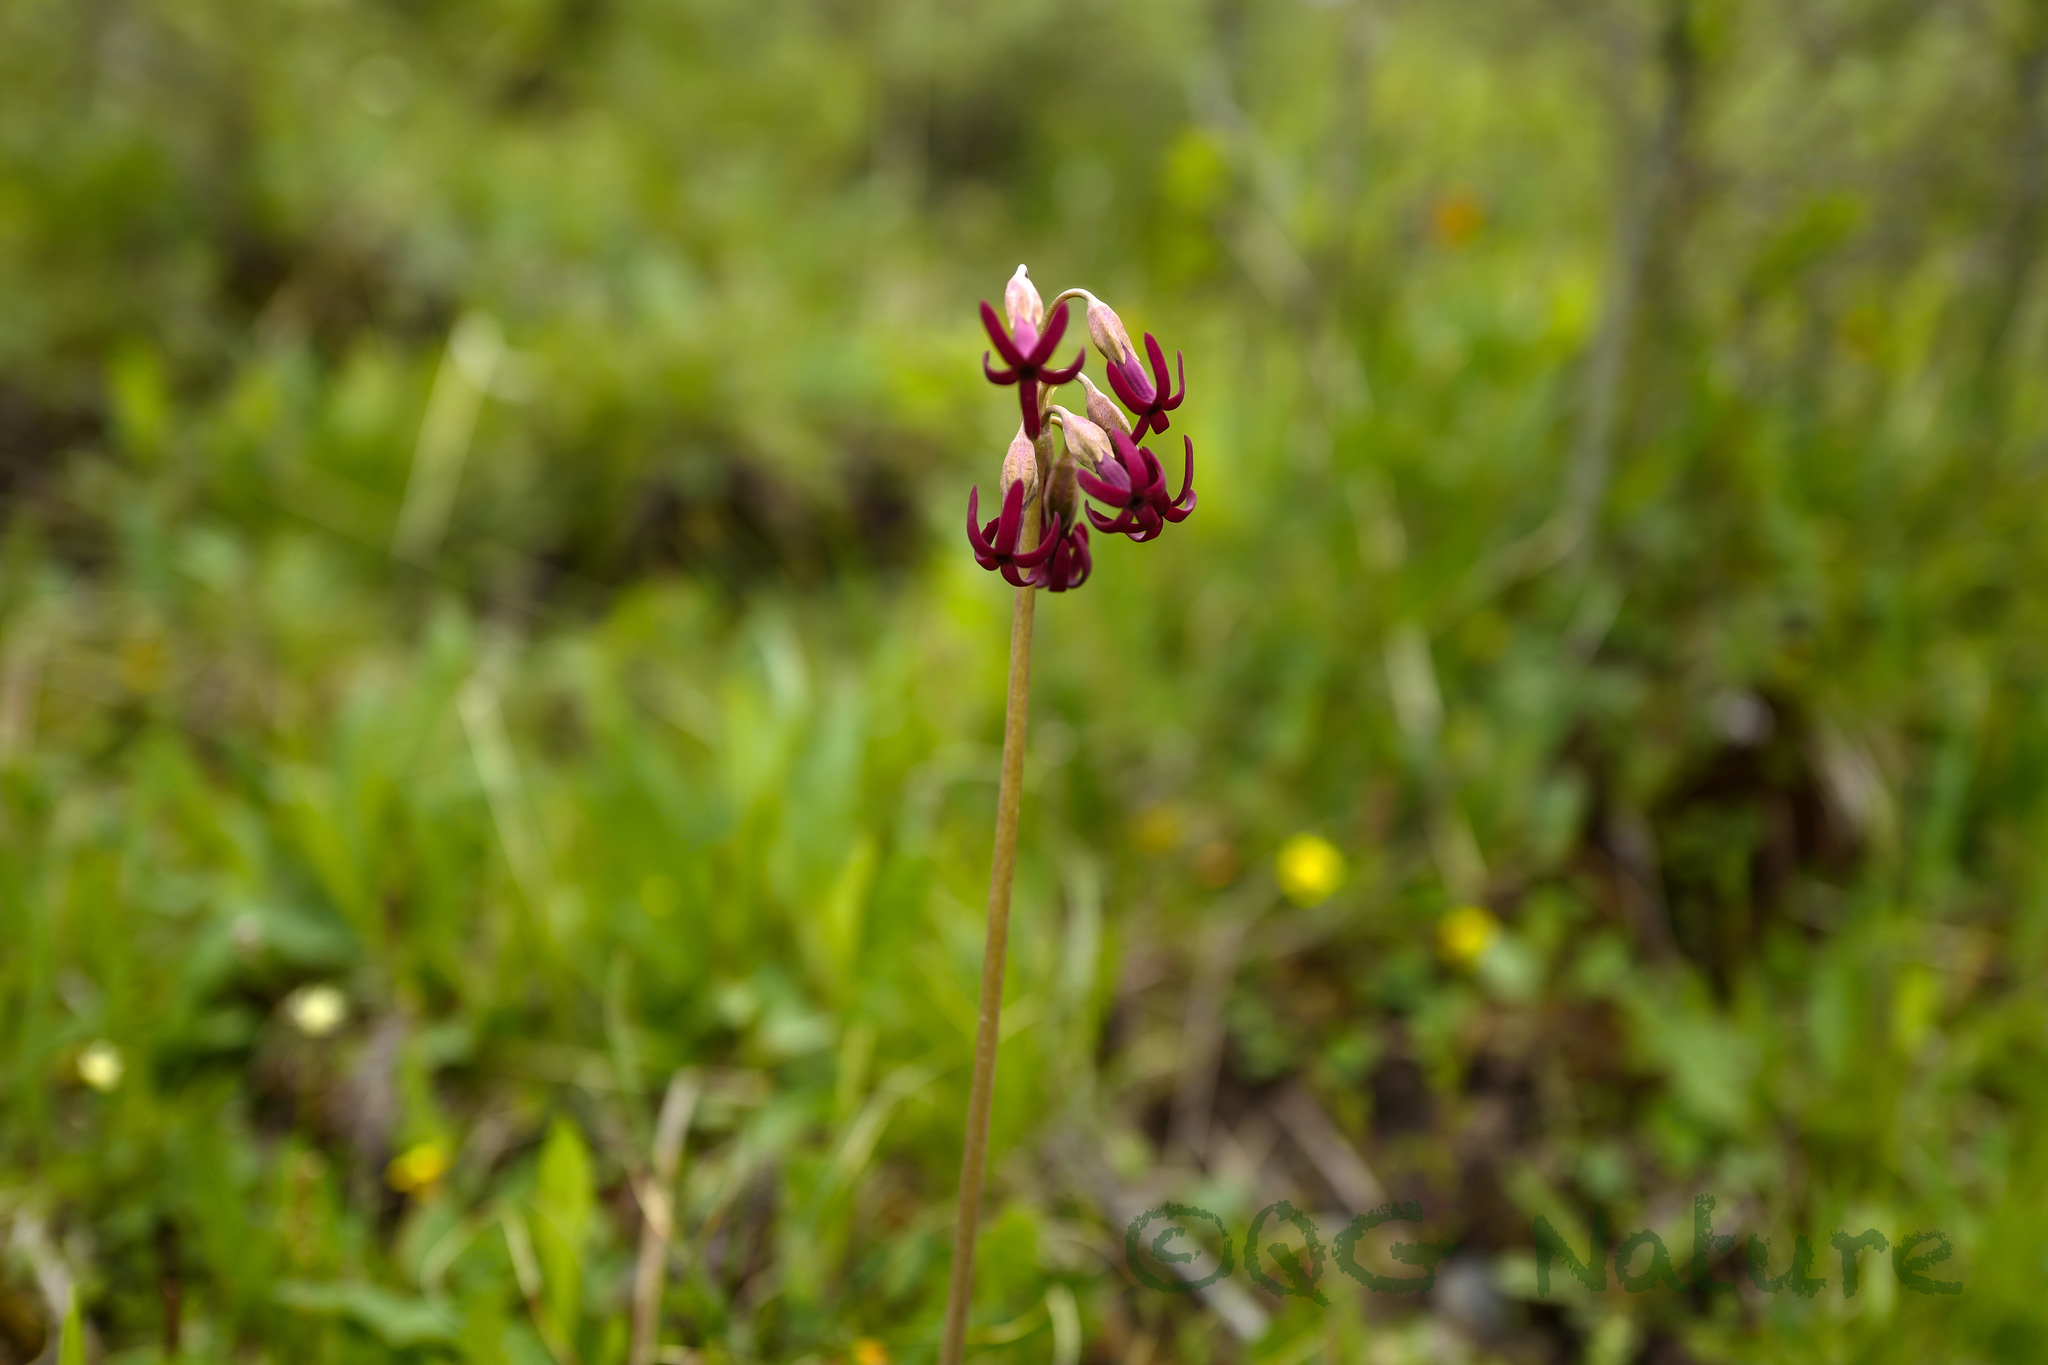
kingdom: Plantae
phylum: Tracheophyta
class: Magnoliopsida
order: Ericales
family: Primulaceae
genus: Primula
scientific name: Primula tangutica
